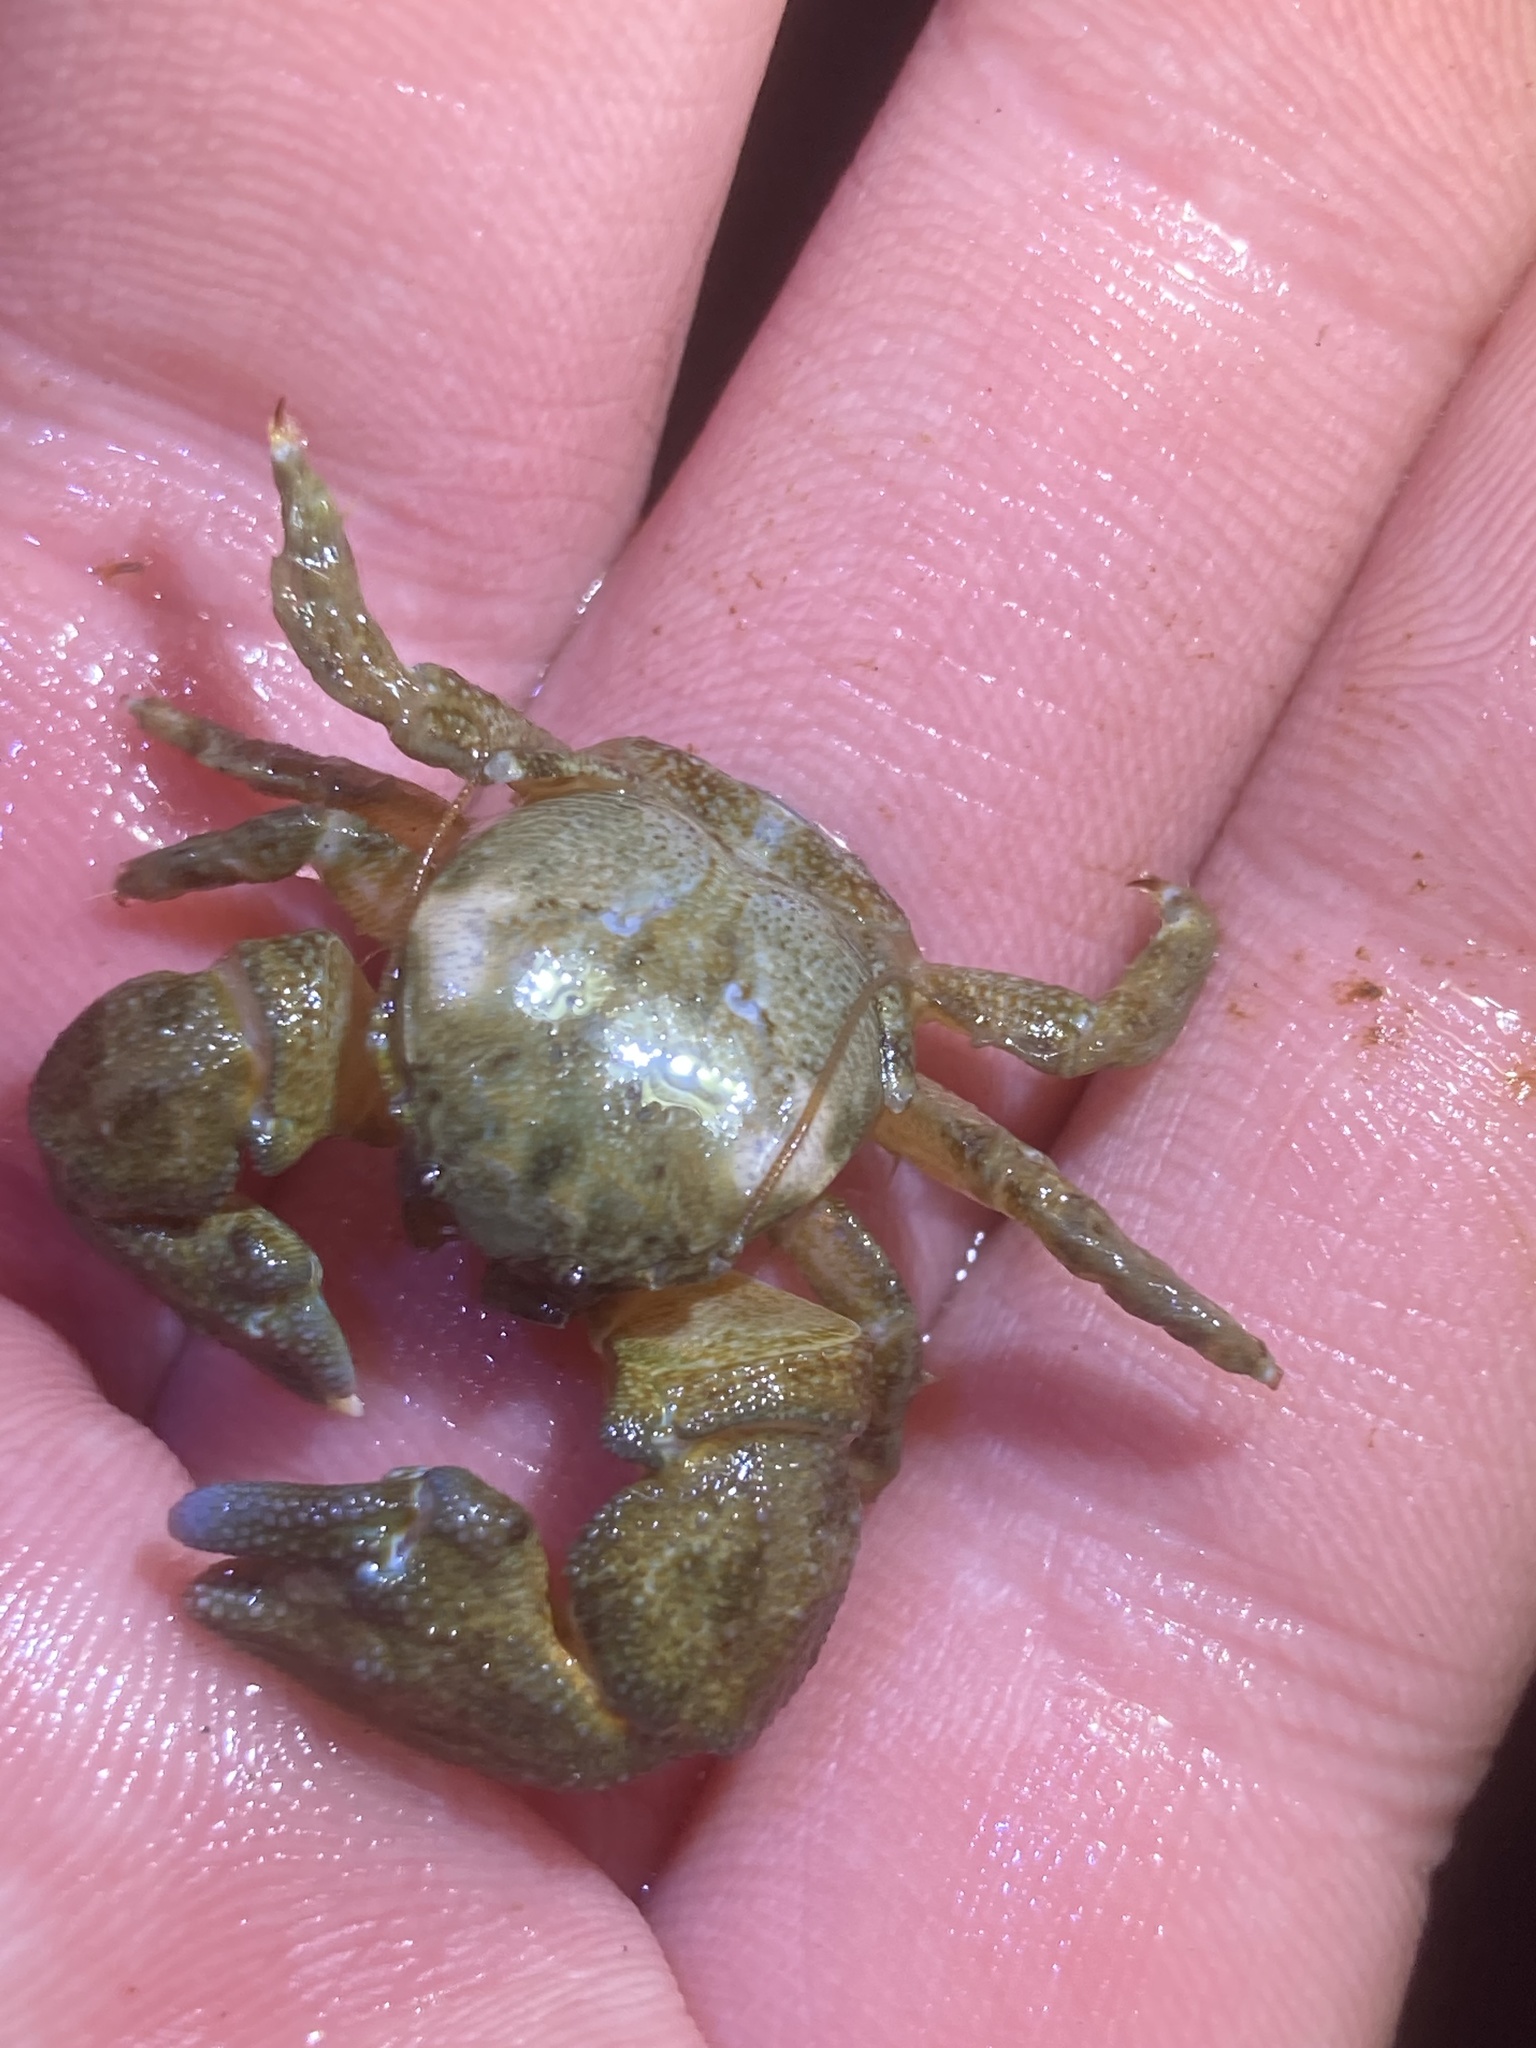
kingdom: Animalia
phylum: Arthropoda
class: Malacostraca
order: Decapoda
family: Porcellanidae
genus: Pachycheles
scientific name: Pachycheles rudis
